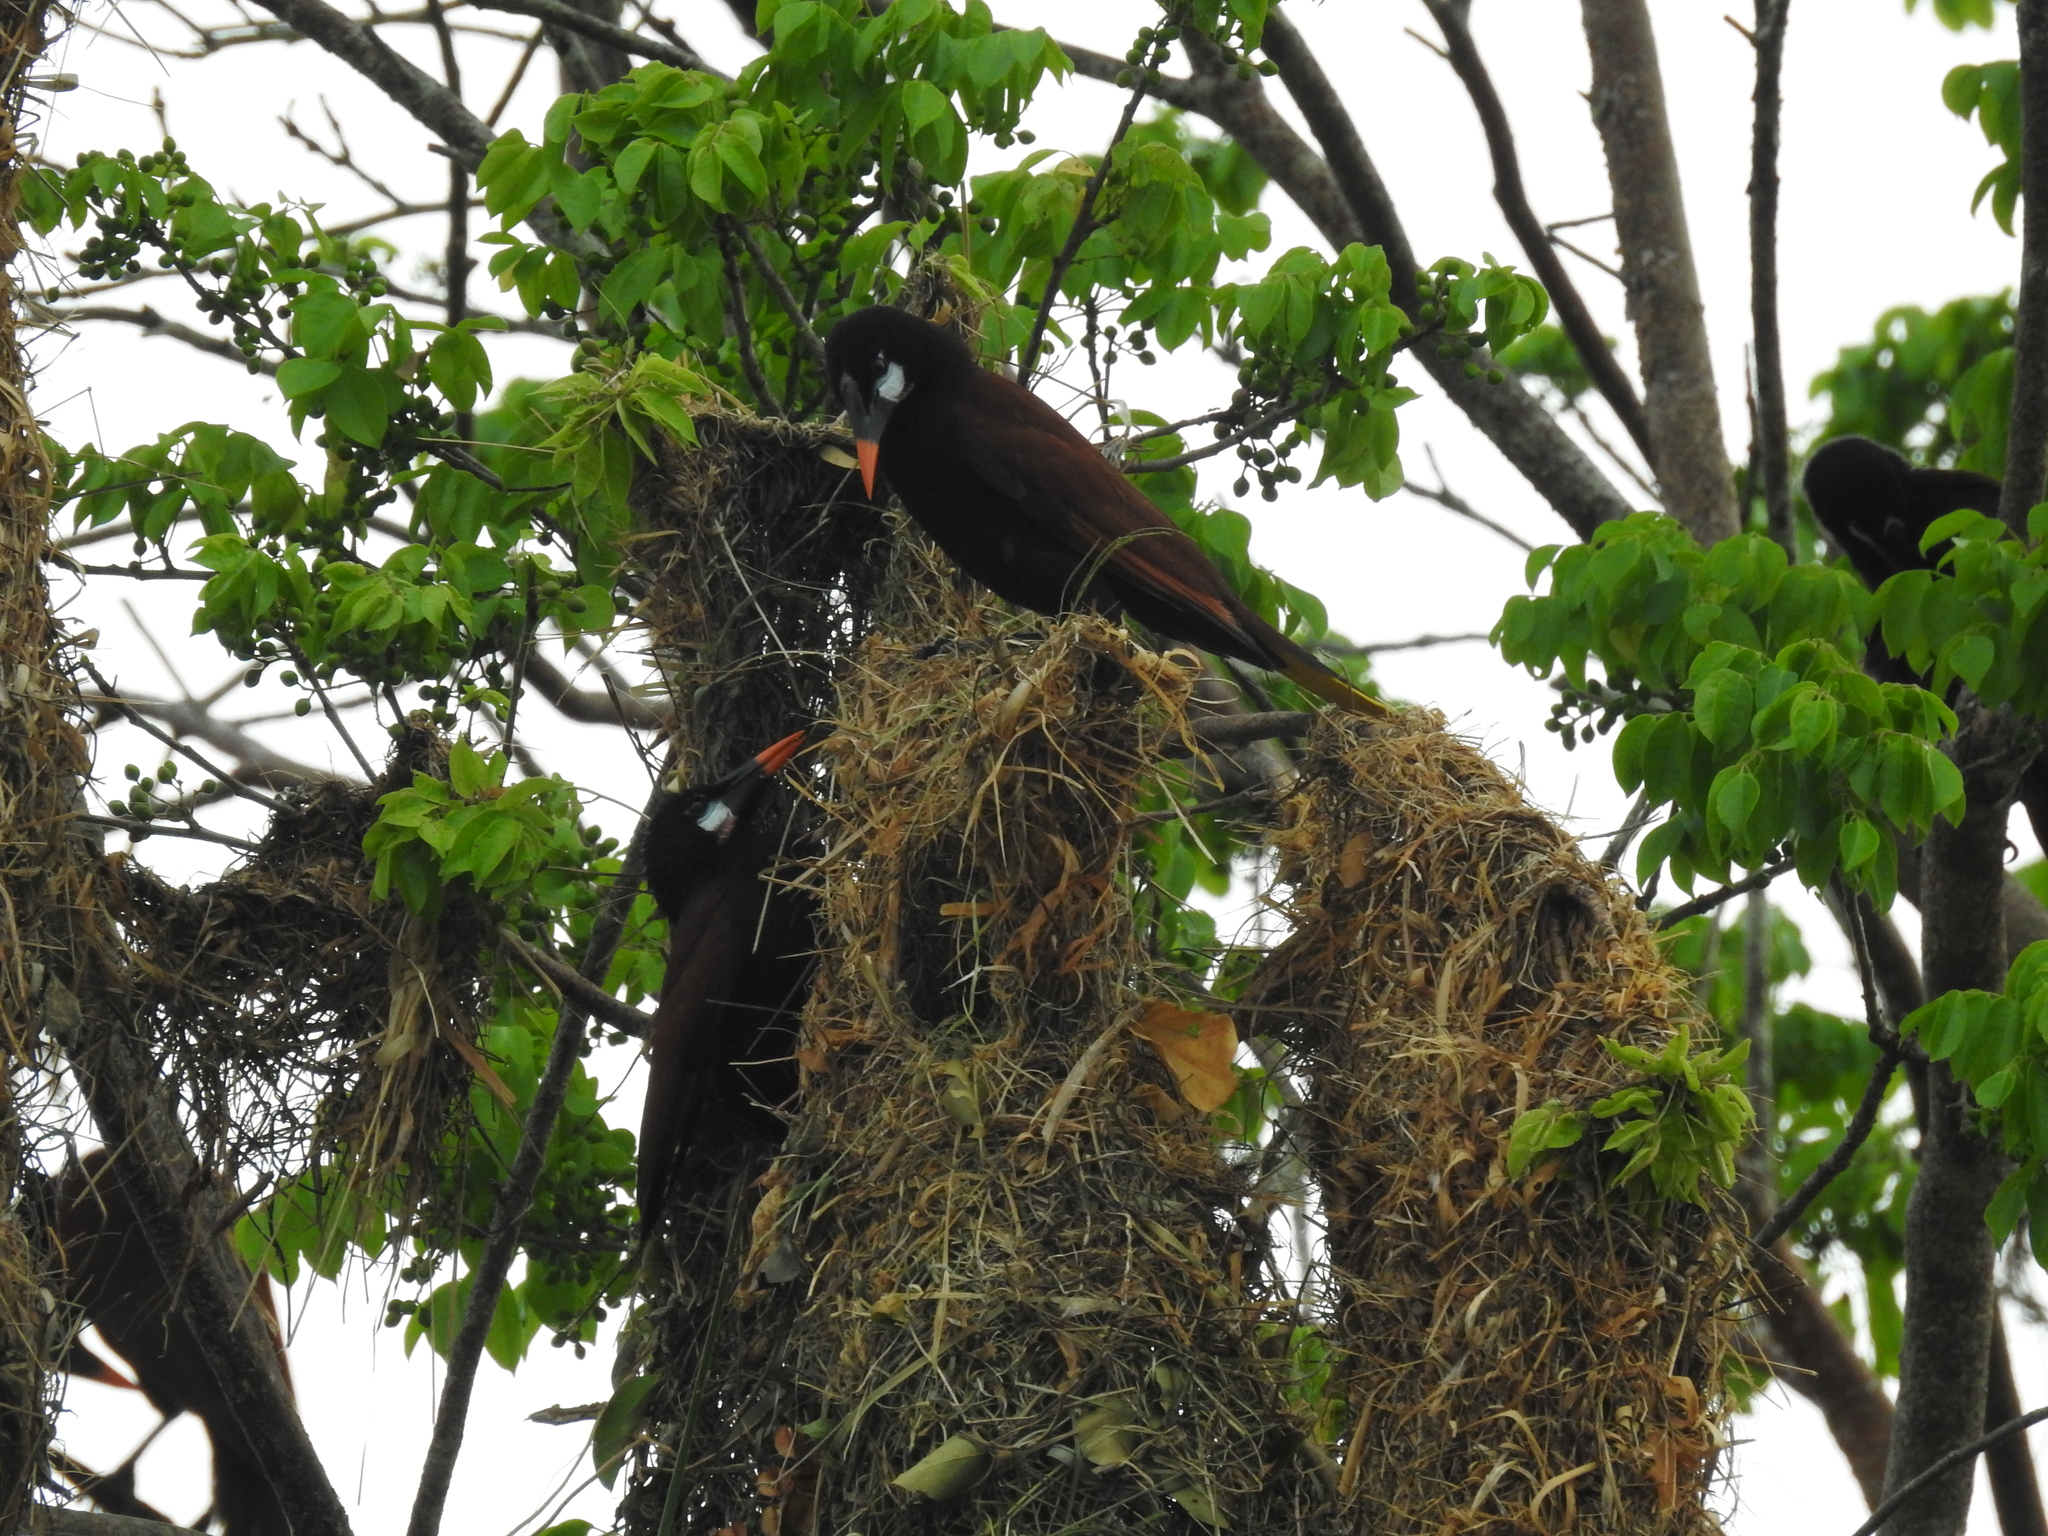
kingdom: Animalia
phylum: Chordata
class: Aves
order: Passeriformes
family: Icteridae
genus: Psarocolius
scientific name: Psarocolius montezuma
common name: Montezuma oropendola
